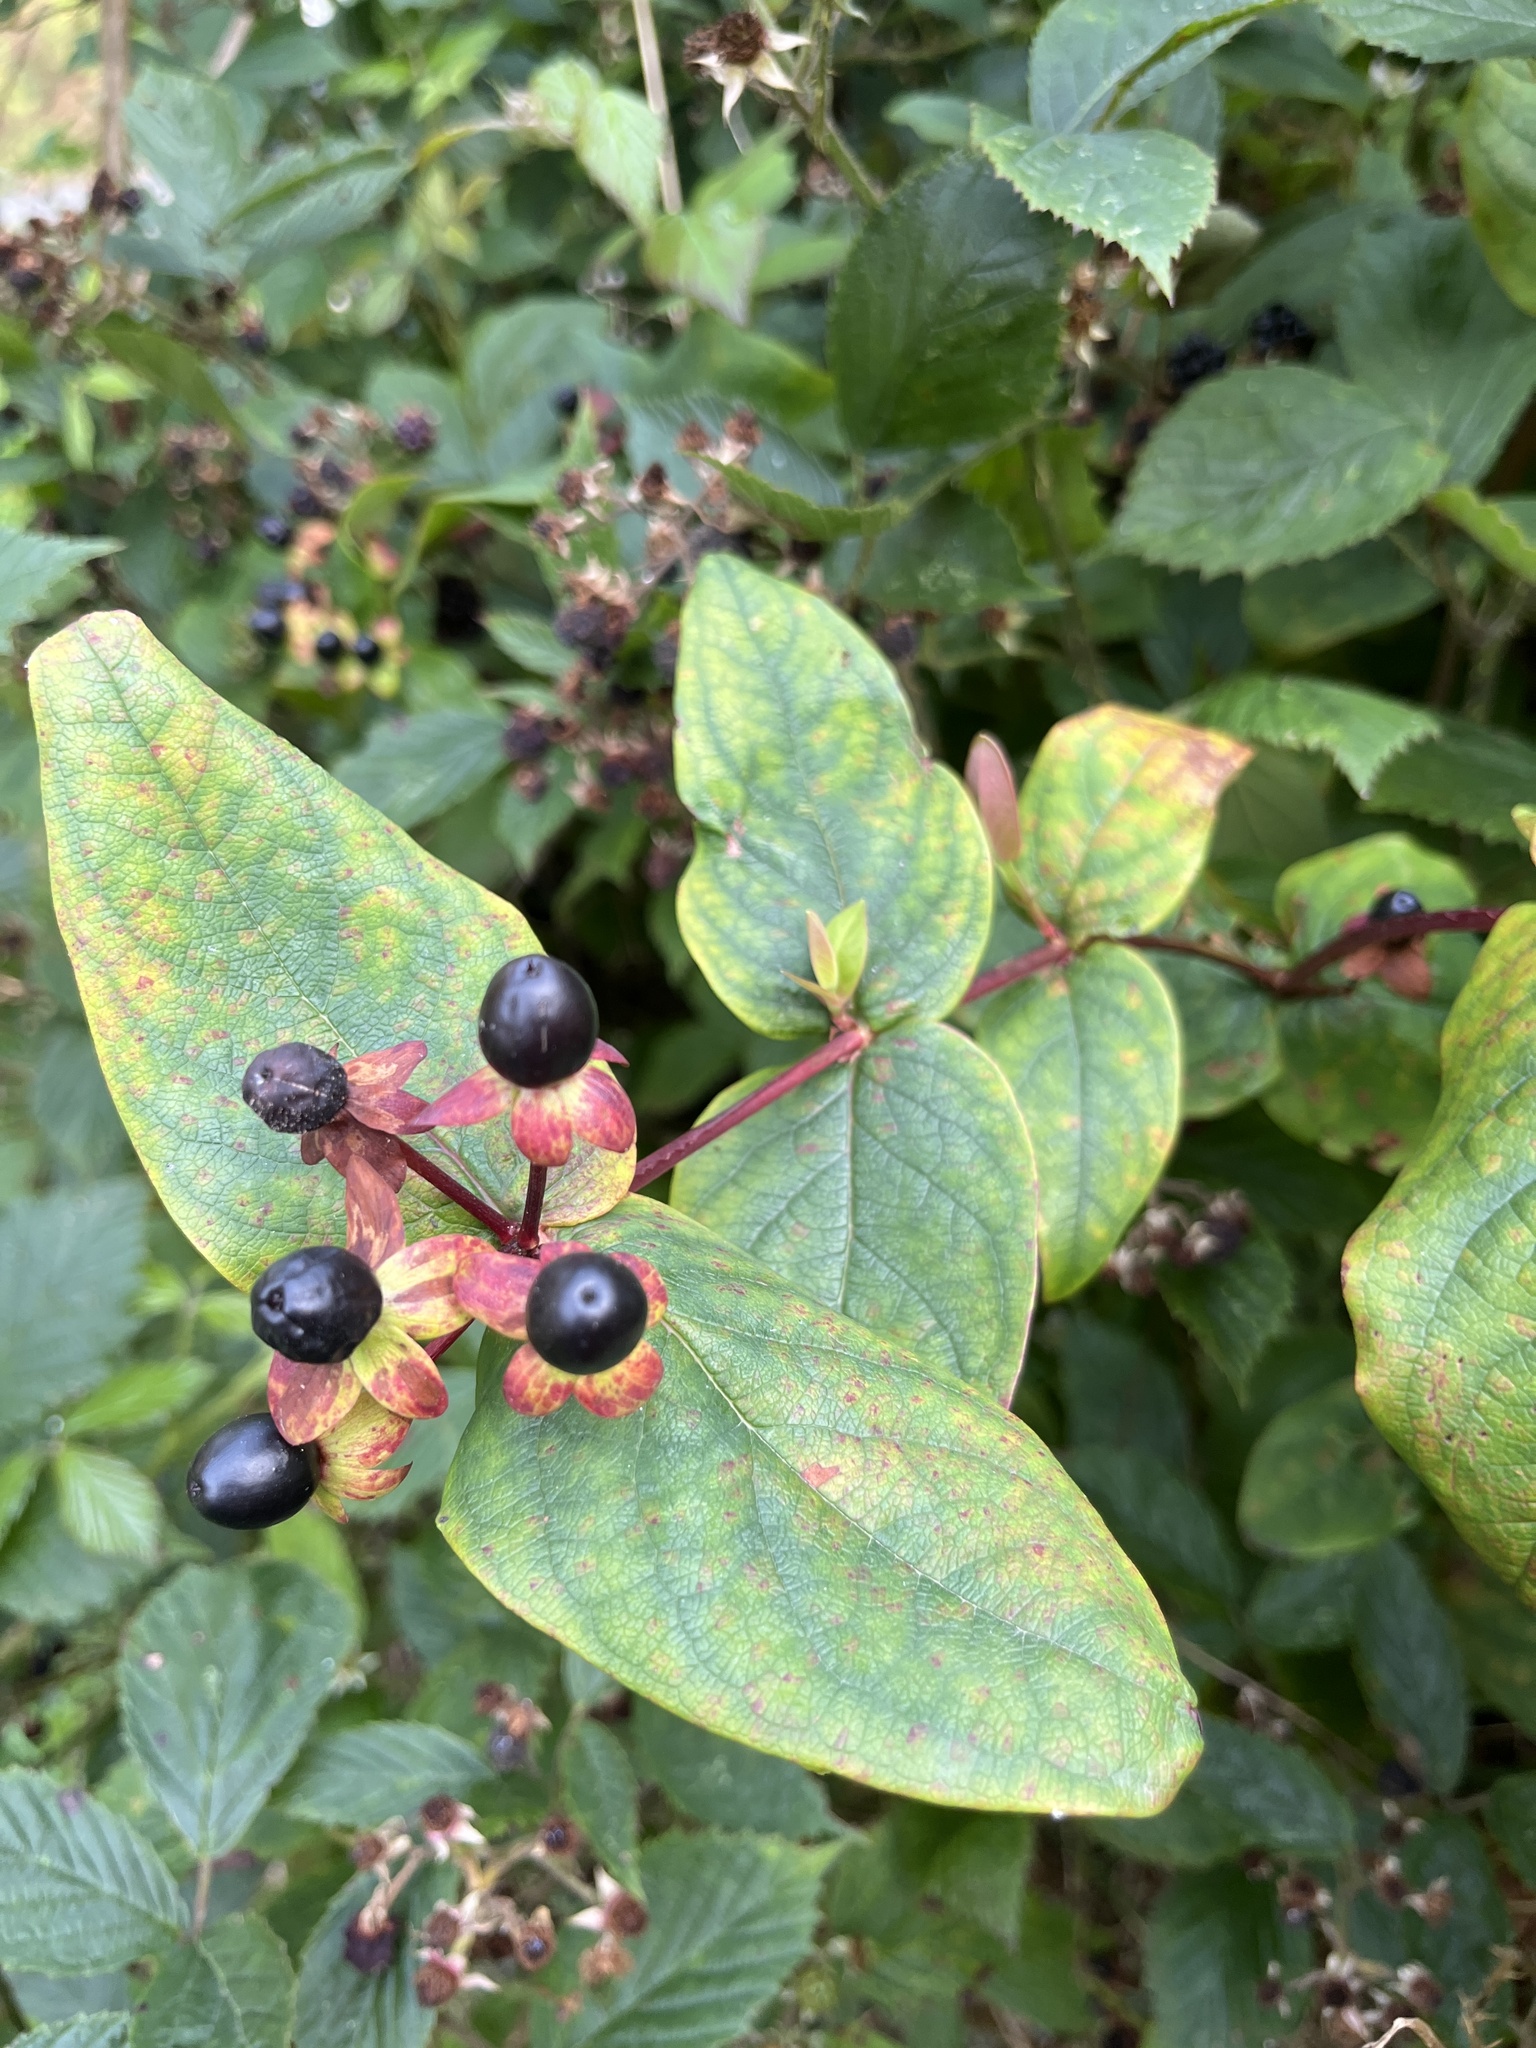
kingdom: Plantae
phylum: Tracheophyta
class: Magnoliopsida
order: Malpighiales
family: Hypericaceae
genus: Hypericum
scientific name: Hypericum androsaemum
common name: Sweet-amber
